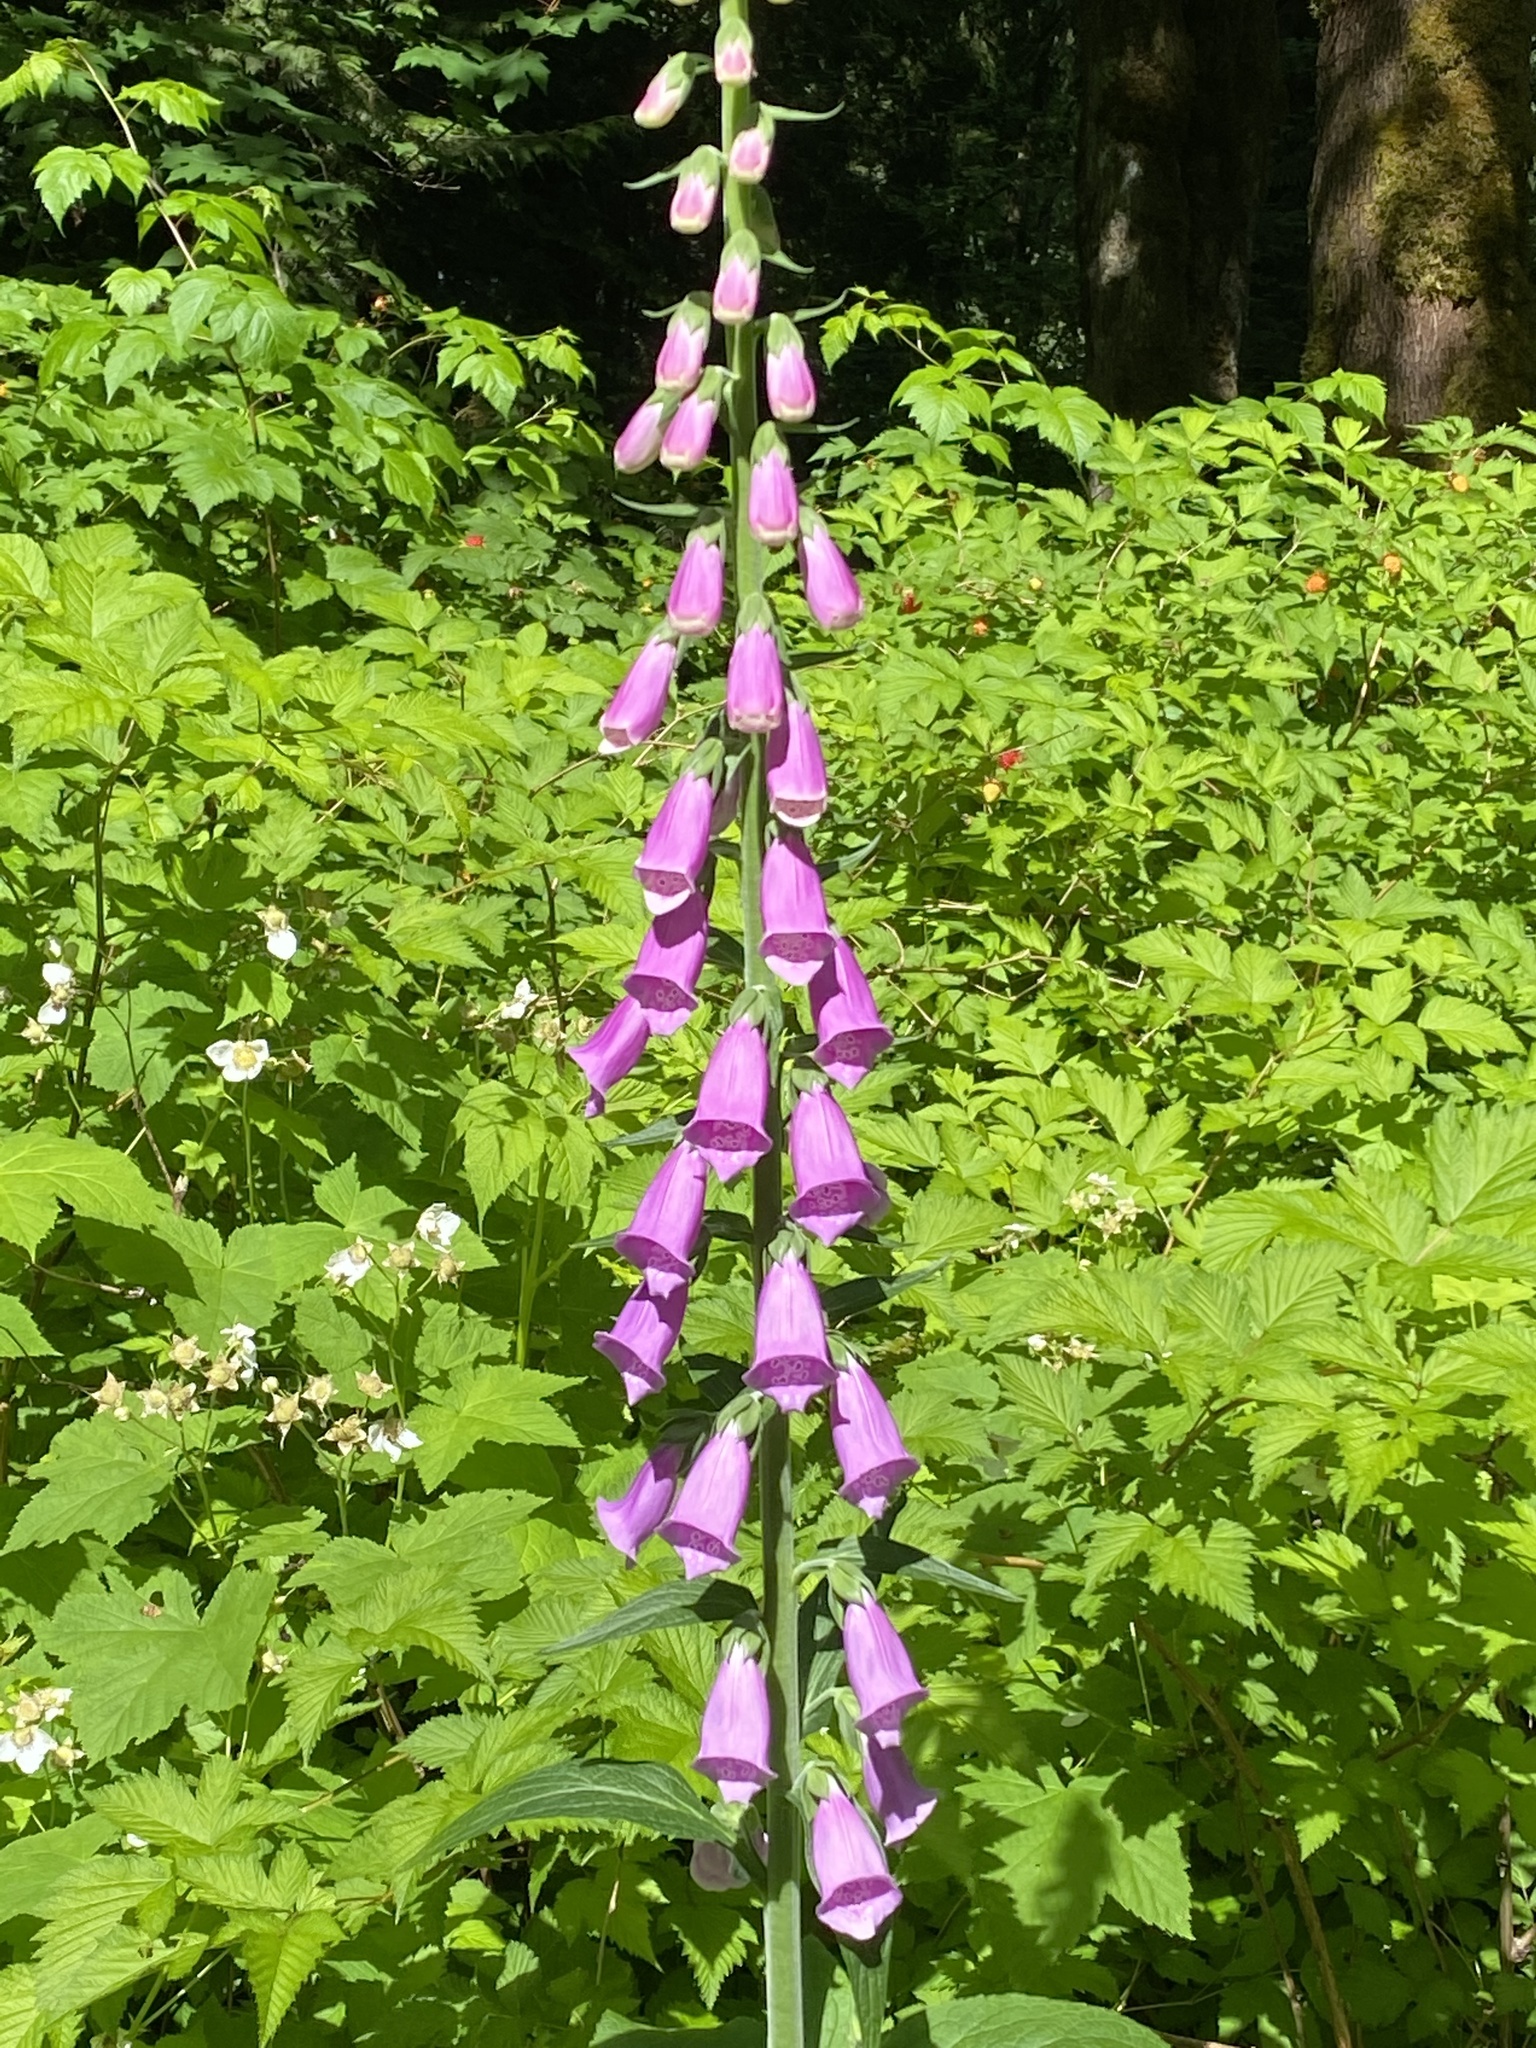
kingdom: Plantae
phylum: Tracheophyta
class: Magnoliopsida
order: Lamiales
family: Plantaginaceae
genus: Digitalis
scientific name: Digitalis purpurea
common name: Foxglove
